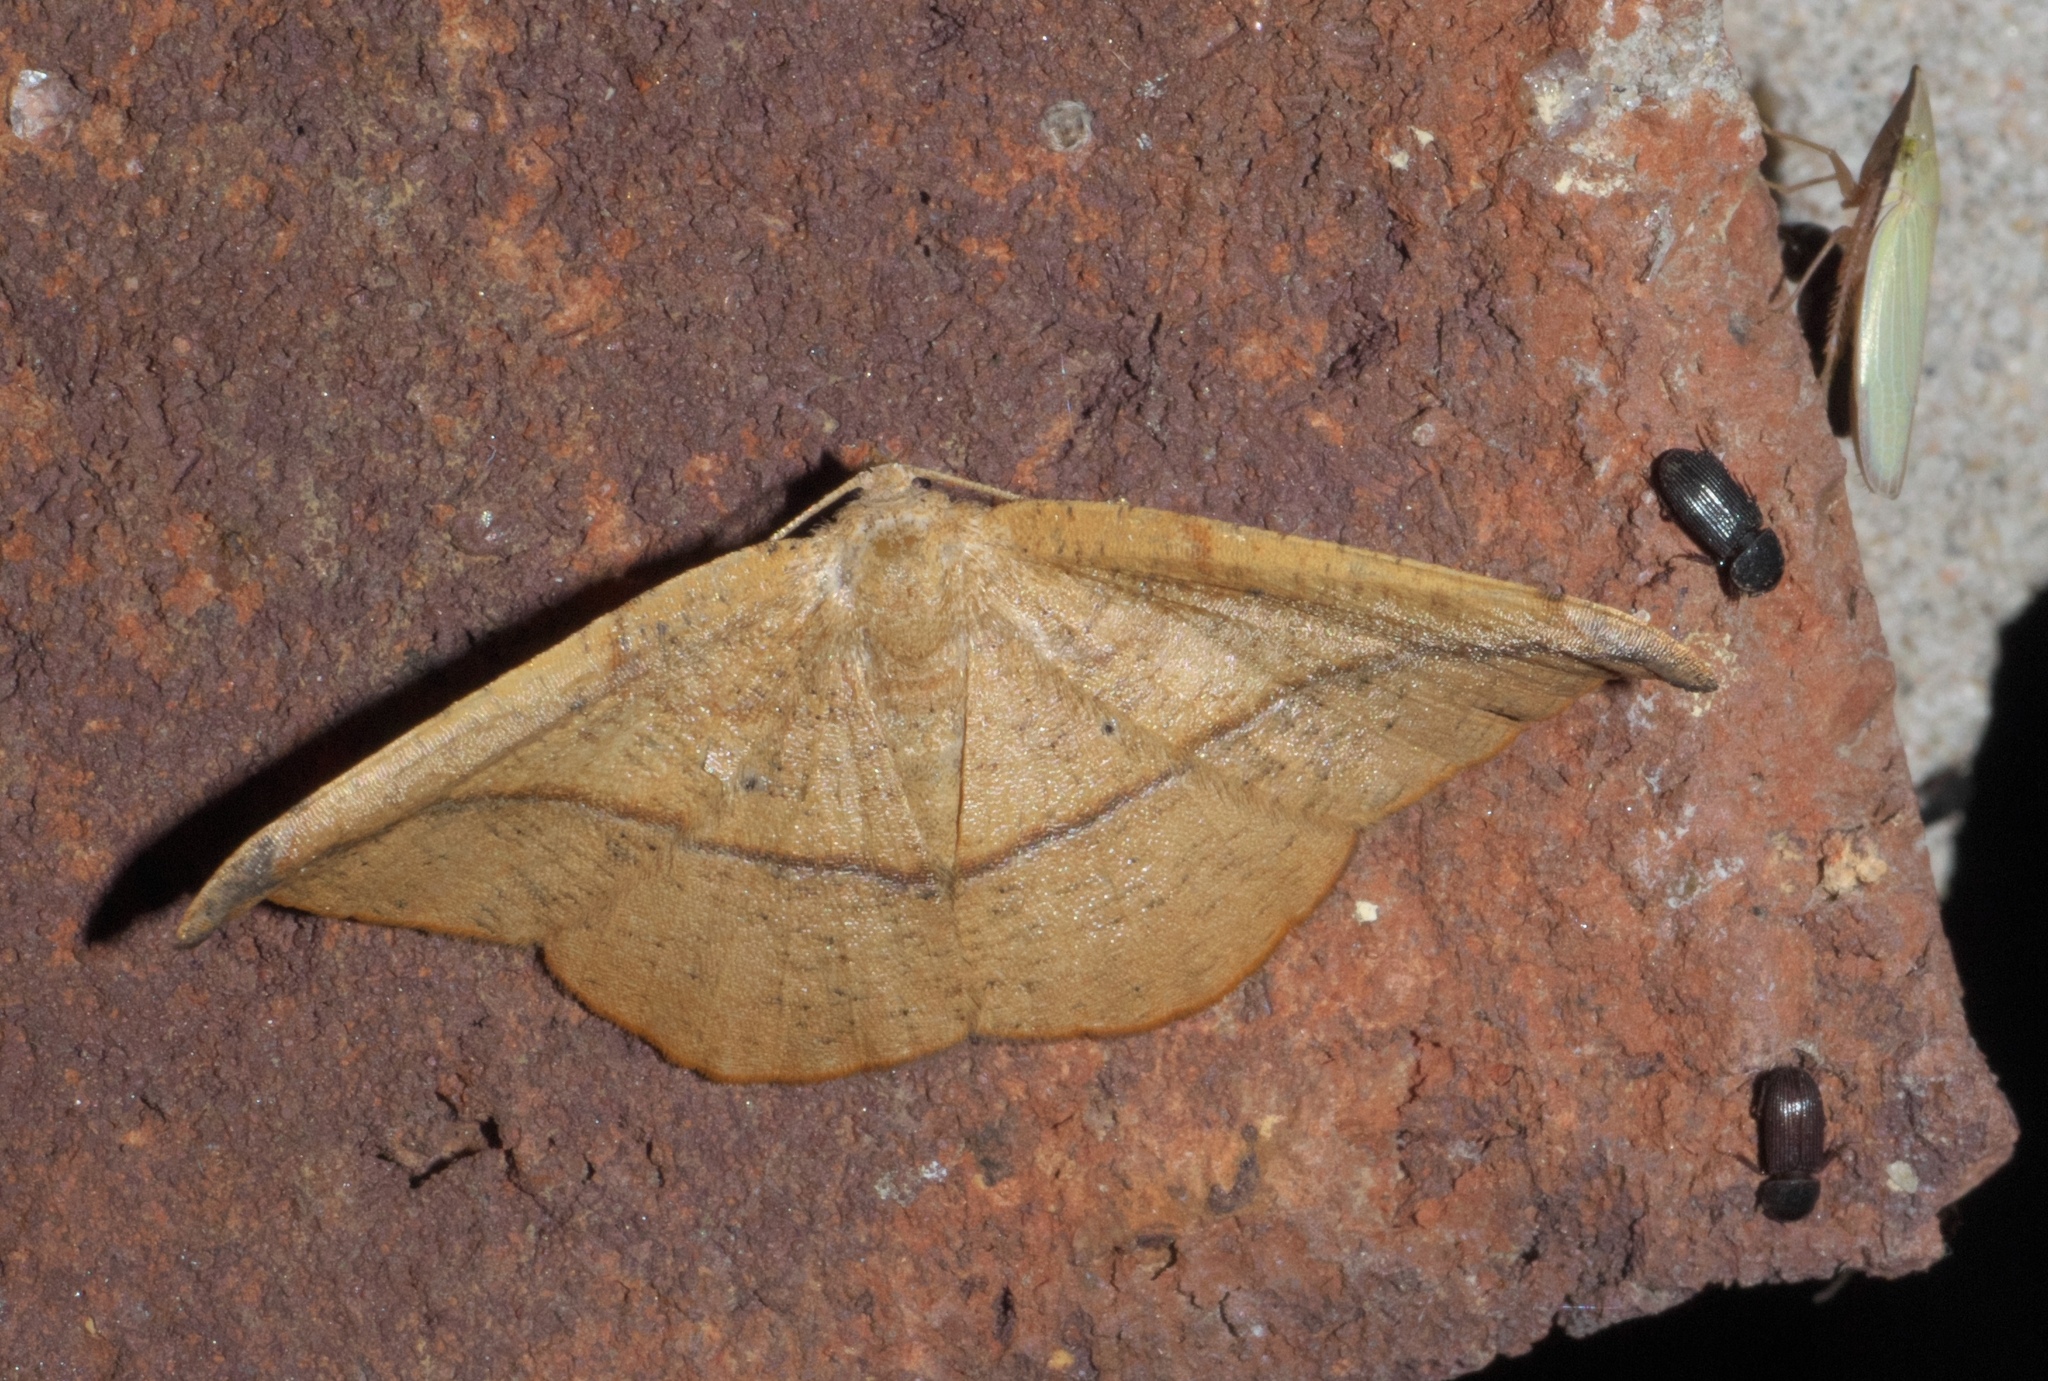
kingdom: Animalia
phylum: Arthropoda
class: Insecta
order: Lepidoptera
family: Geometridae
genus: Patalene
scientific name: Patalene olyzonaria
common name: Juniper geometer moth
